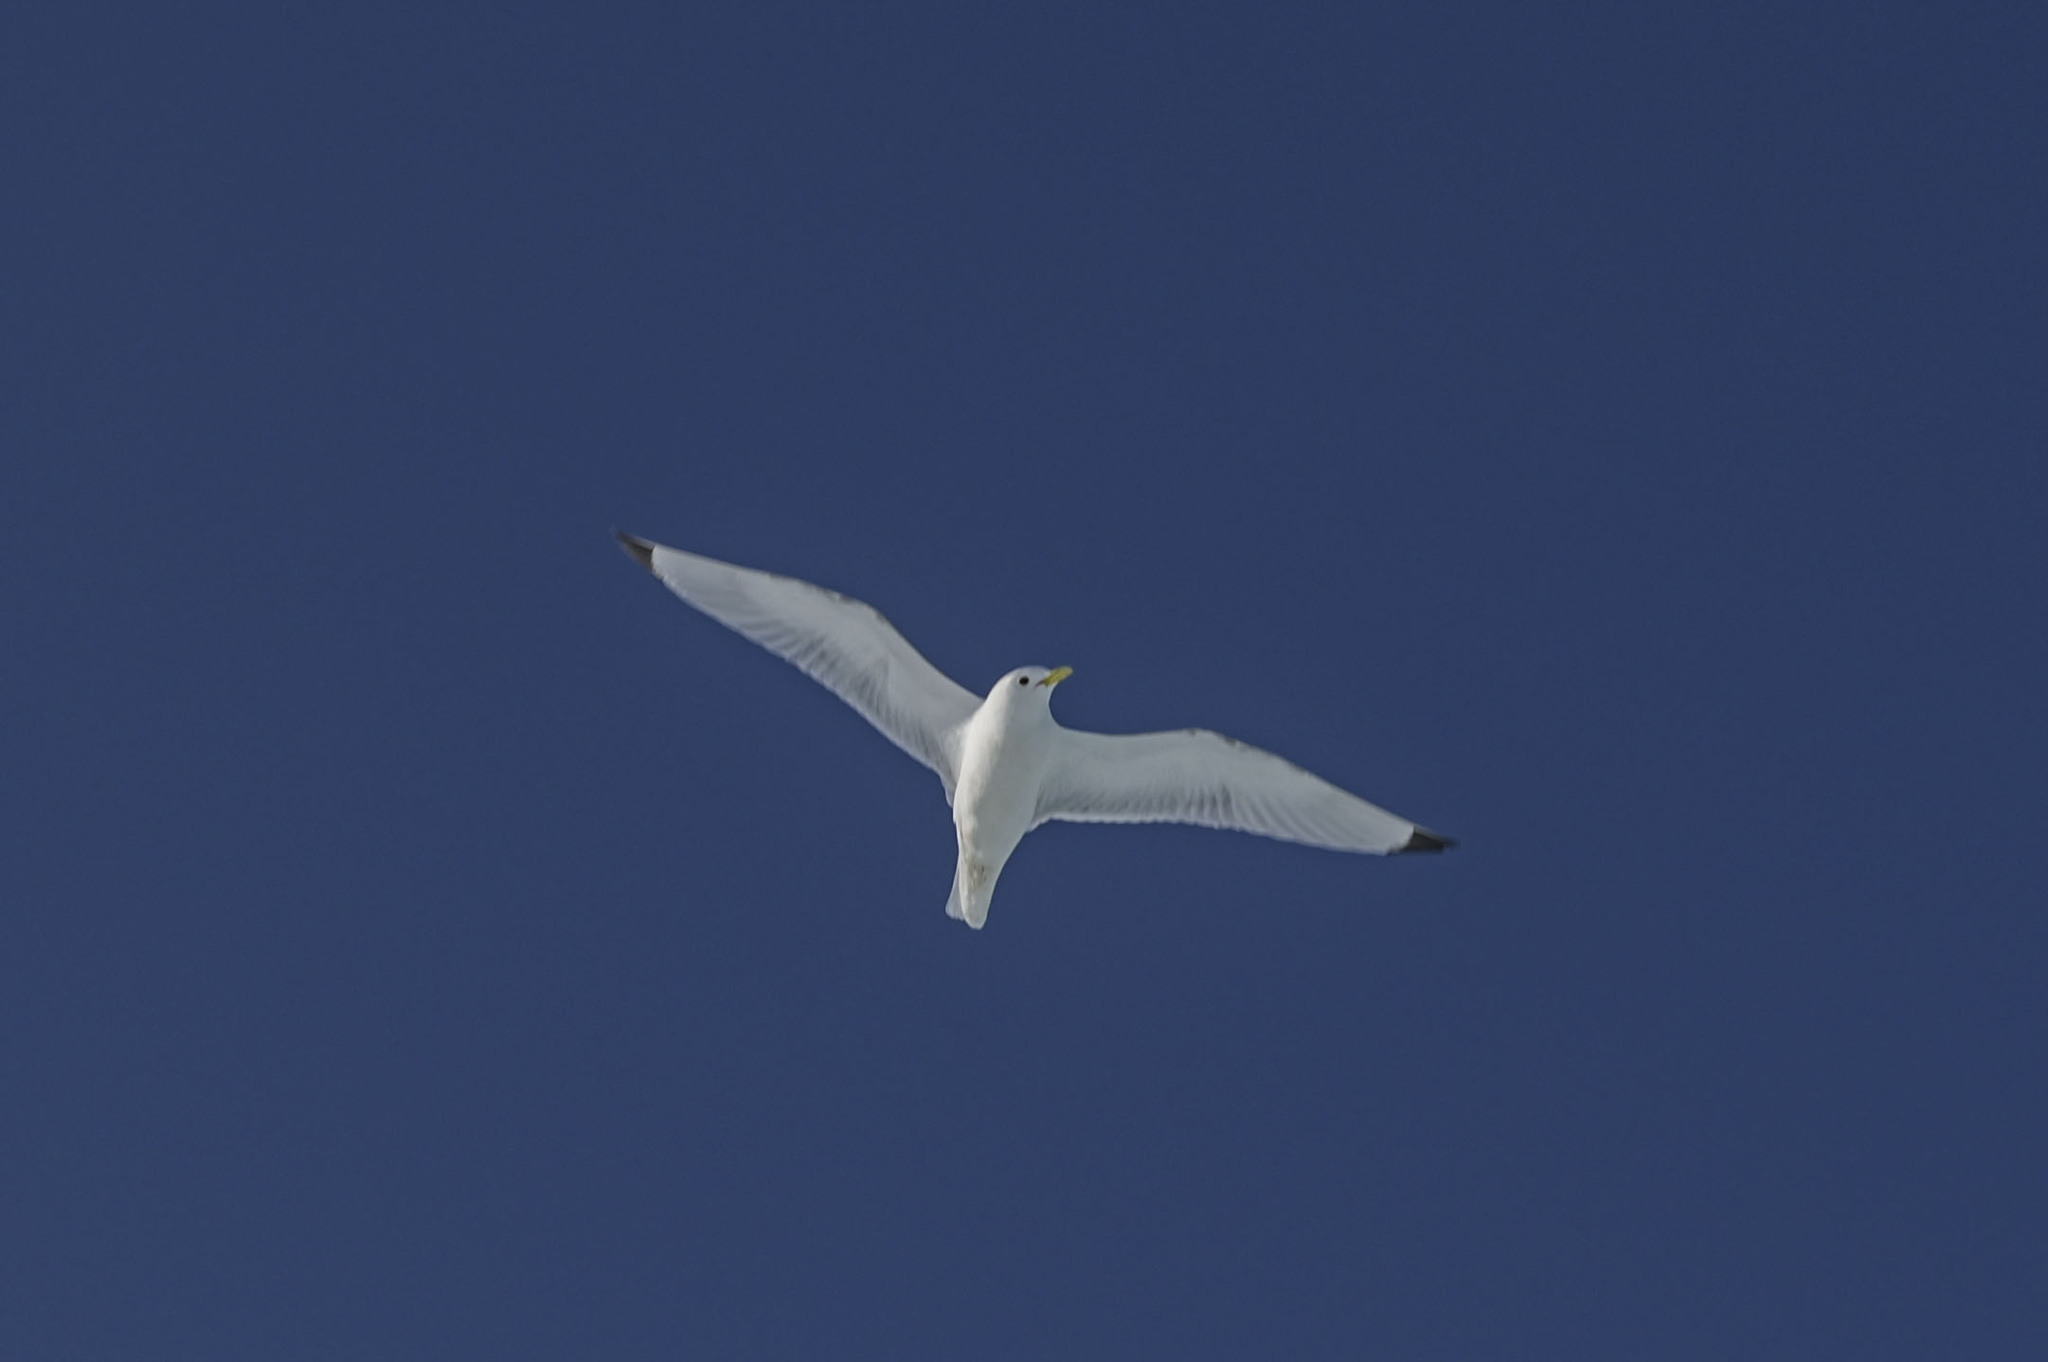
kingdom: Animalia
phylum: Chordata
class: Aves
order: Charadriiformes
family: Laridae
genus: Rissa
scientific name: Rissa tridactyla
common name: Black-legged kittiwake
